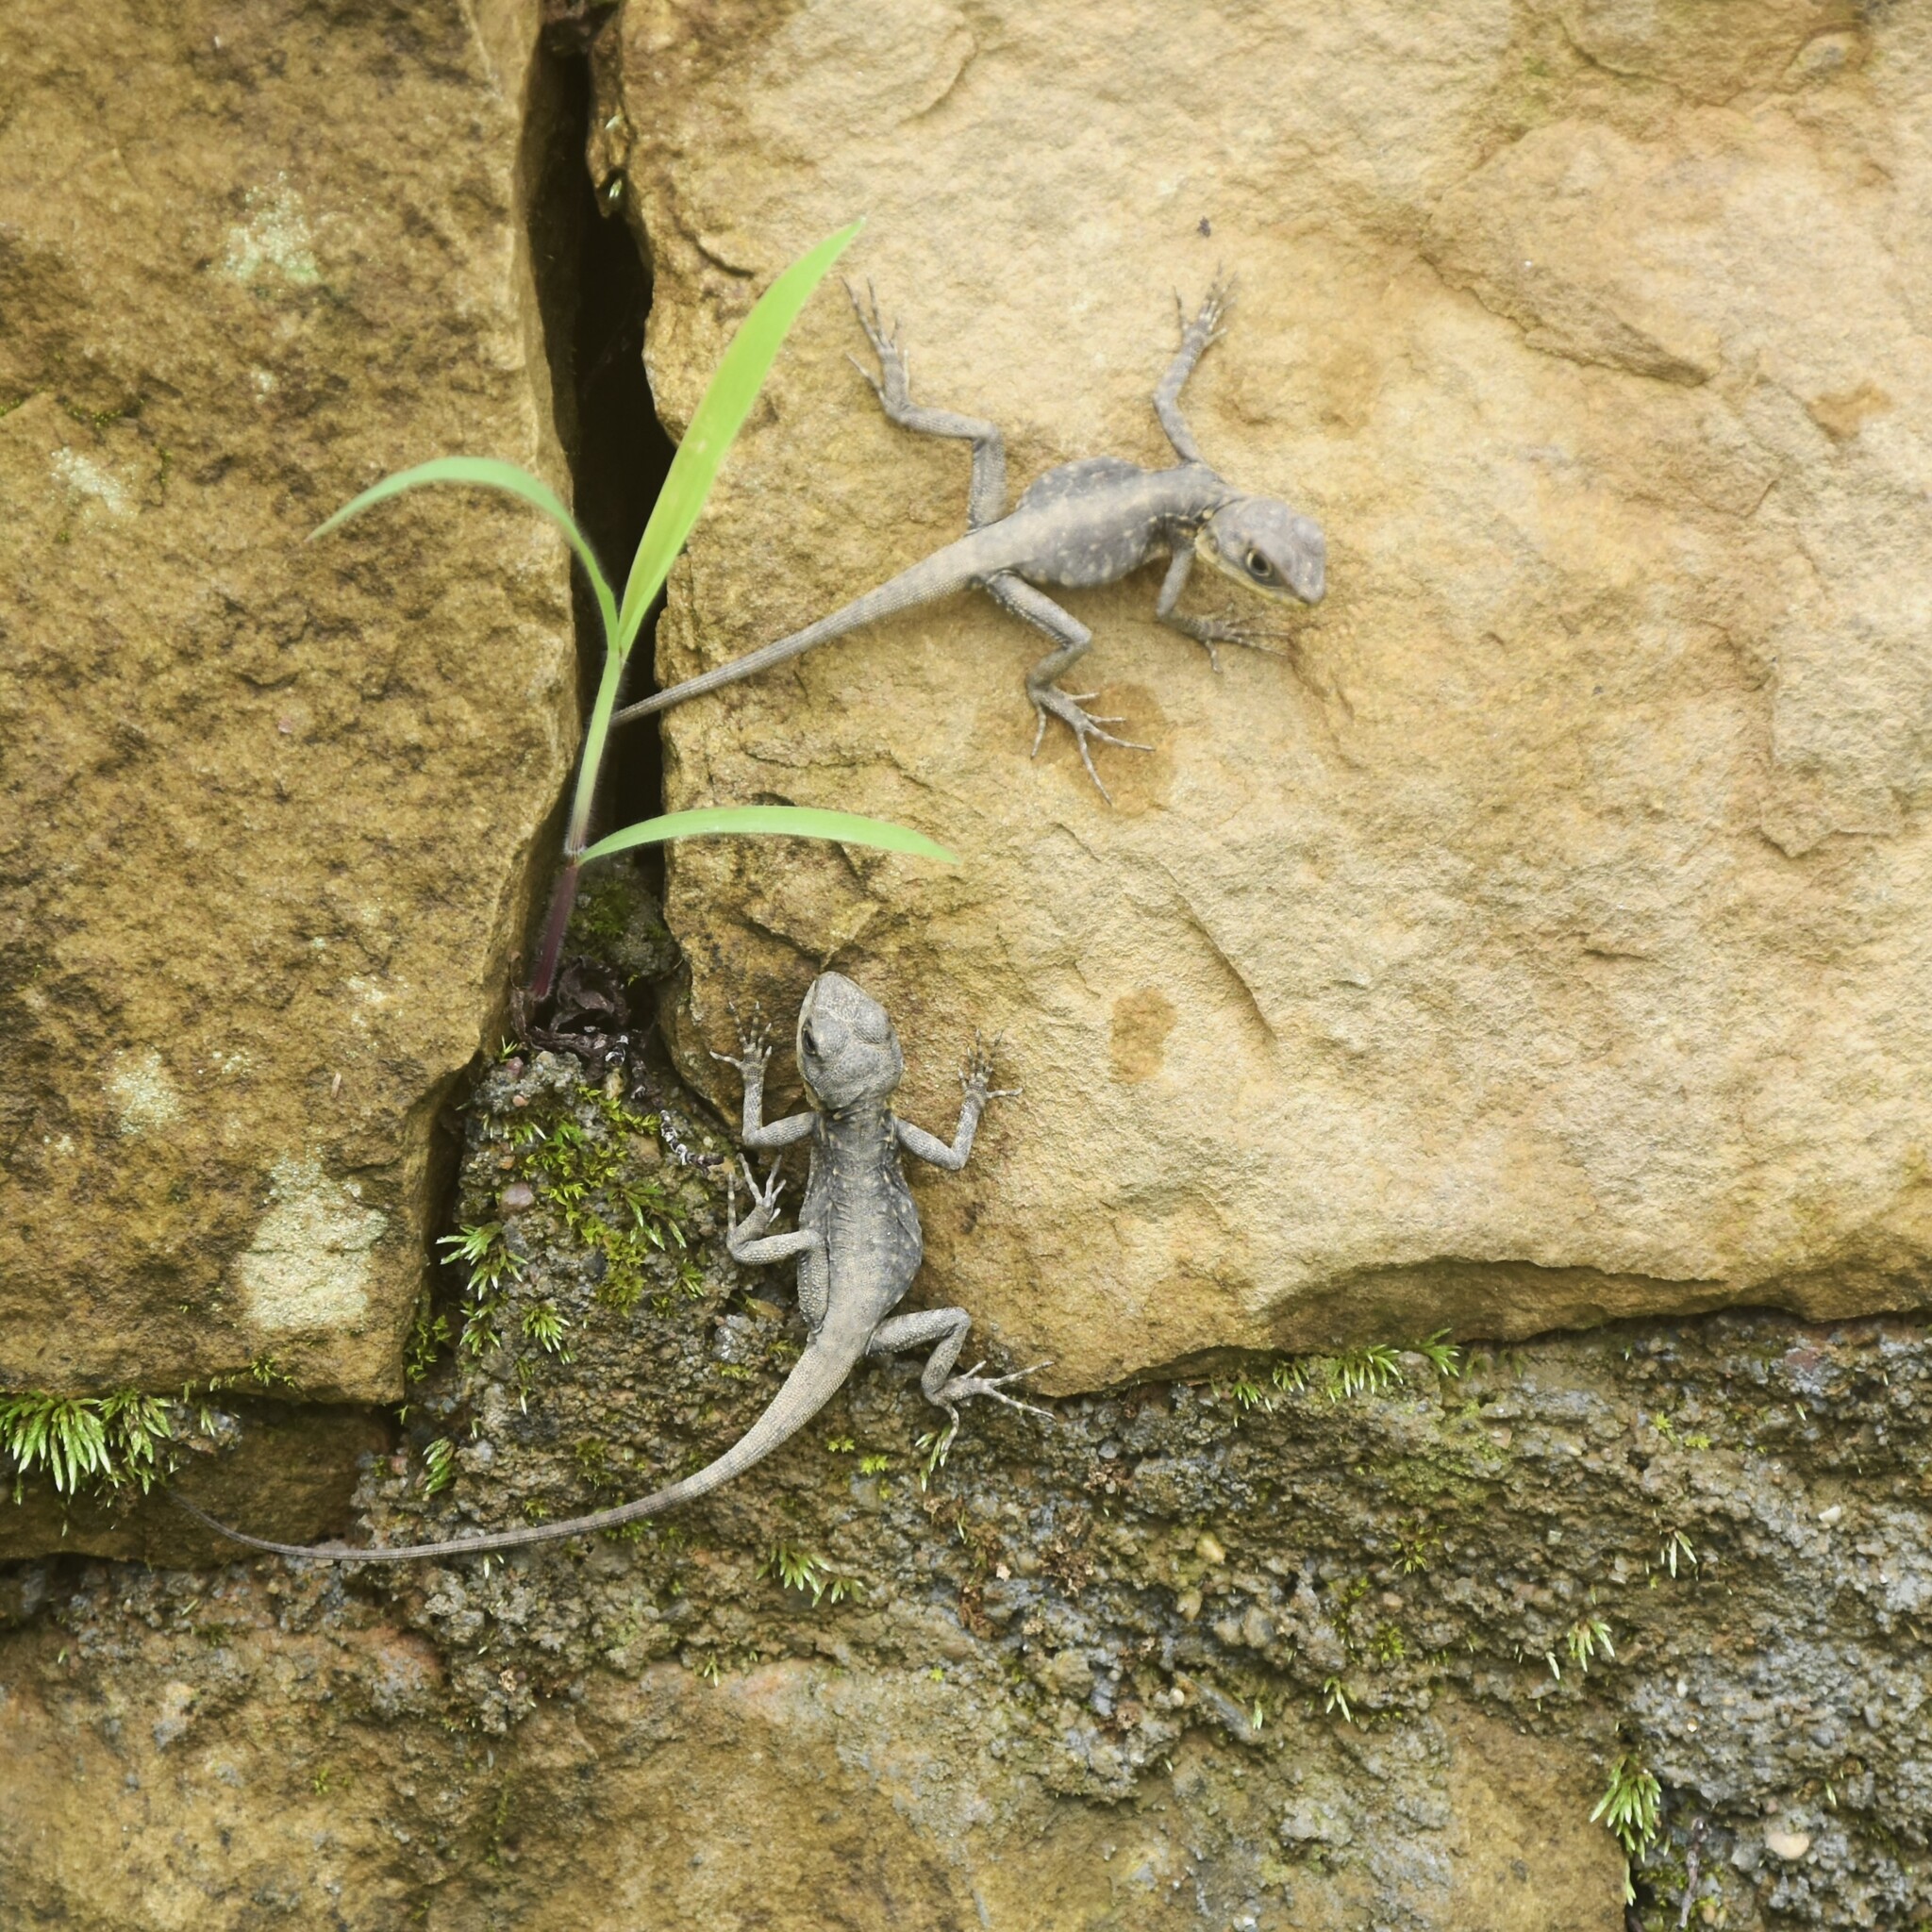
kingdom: Animalia
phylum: Chordata
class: Squamata
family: Agamidae
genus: Laudakia
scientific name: Laudakia tuberculata
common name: Kashmir rock agama
